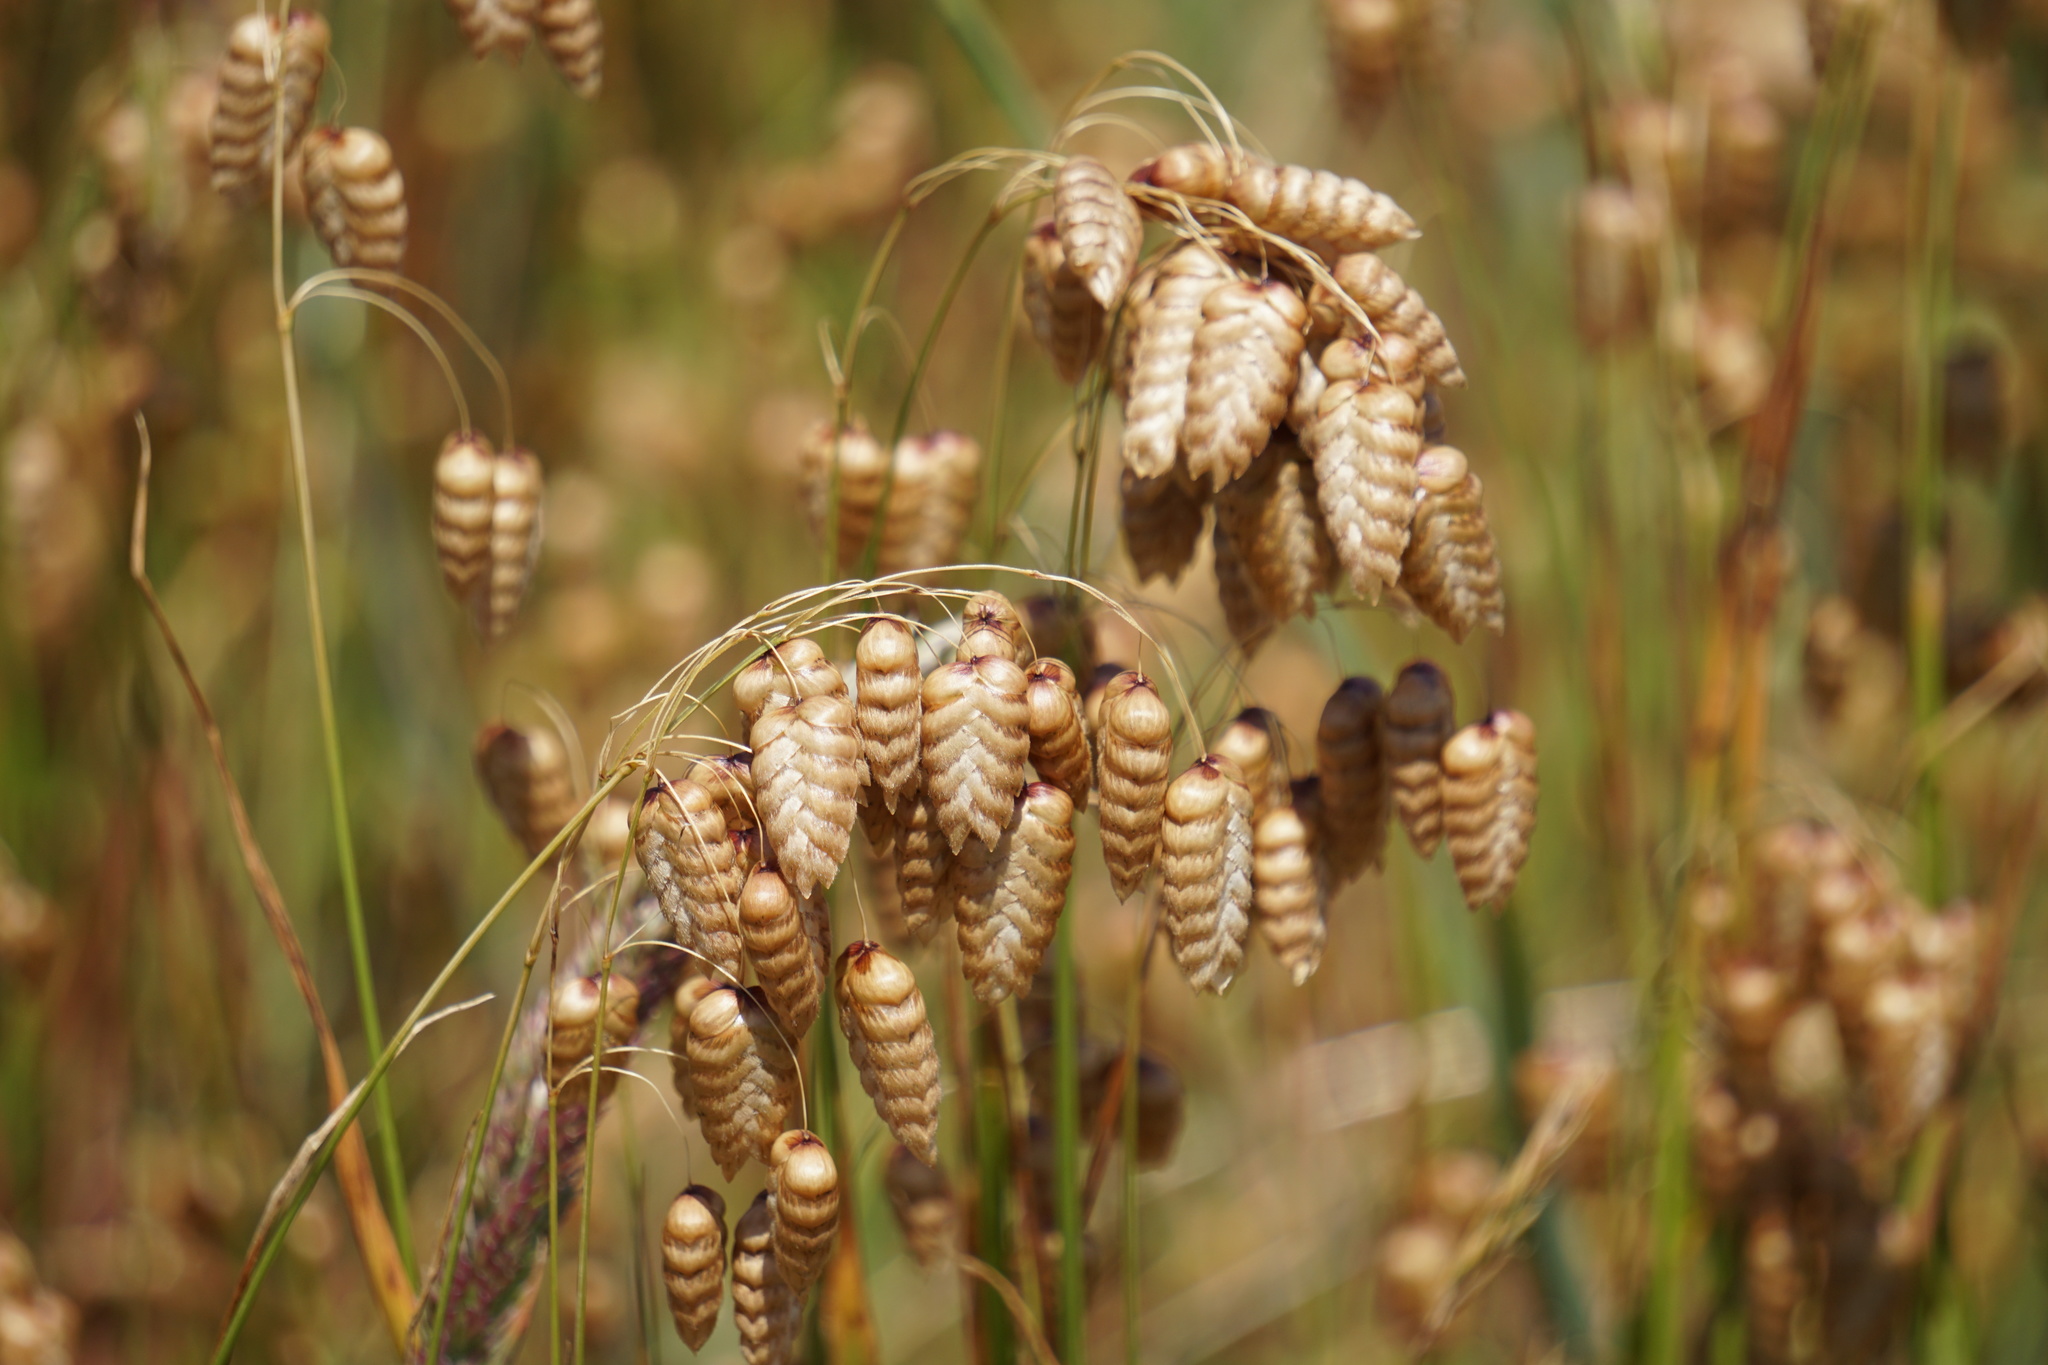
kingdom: Plantae
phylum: Tracheophyta
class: Liliopsida
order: Poales
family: Poaceae
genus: Briza
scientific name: Briza maxima
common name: Big quakinggrass
